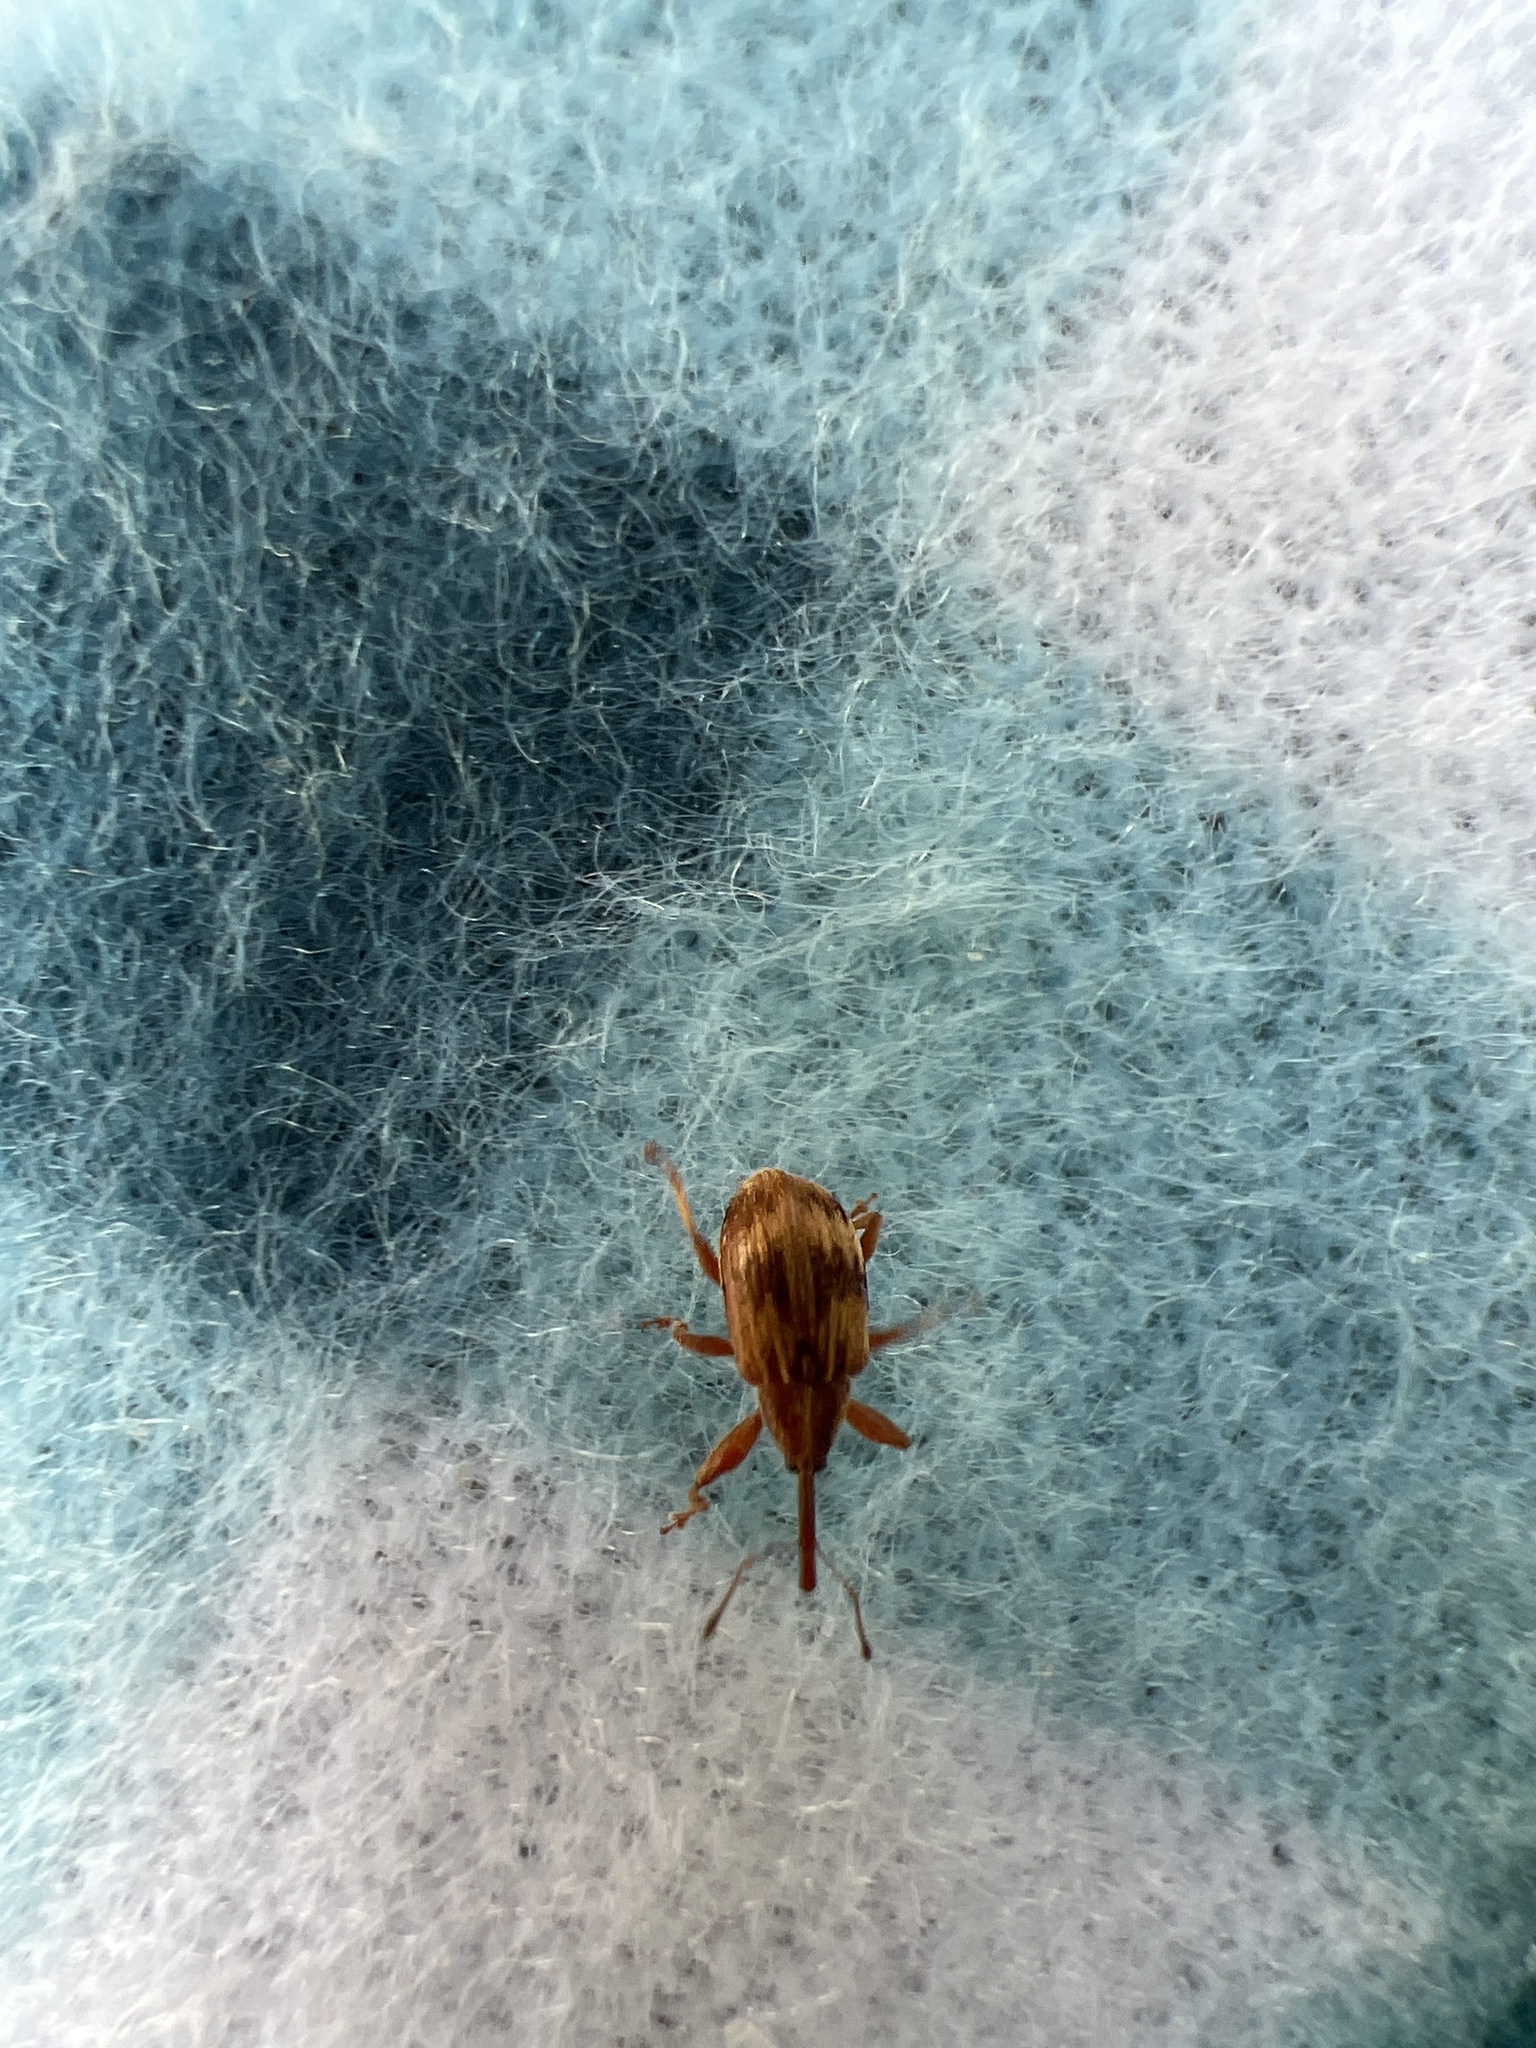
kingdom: Animalia
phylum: Arthropoda
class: Insecta
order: Coleoptera
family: Curculionidae
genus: Anthonomus
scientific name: Anthonomus rectirostris
